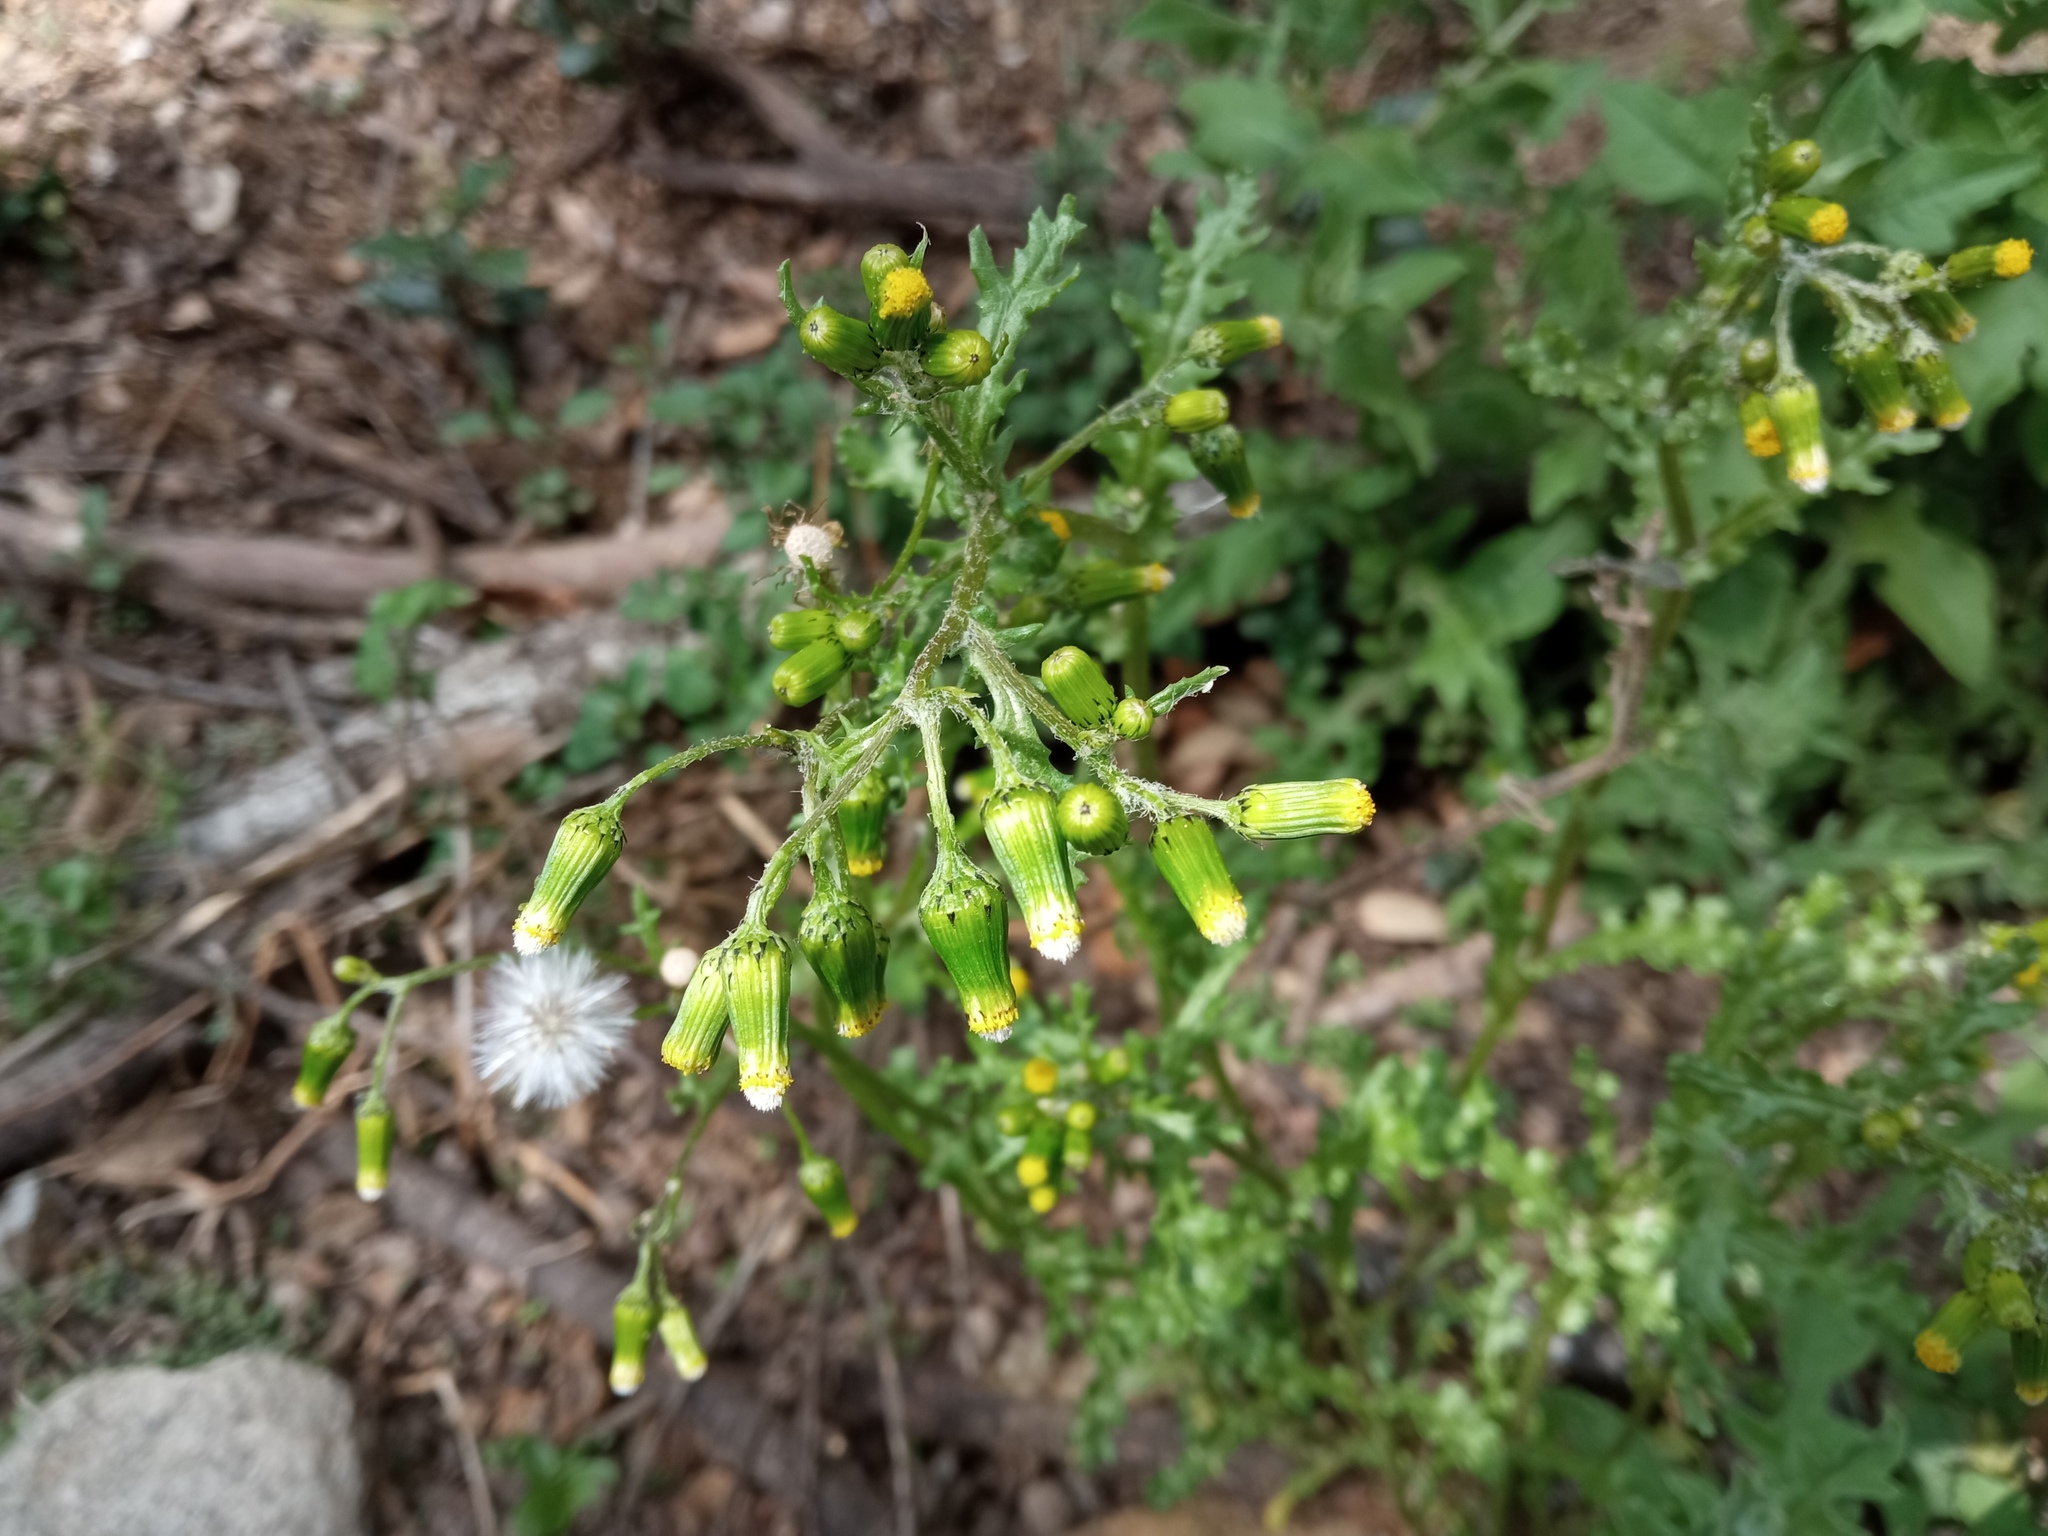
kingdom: Plantae
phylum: Tracheophyta
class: Magnoliopsida
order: Asterales
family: Asteraceae
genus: Senecio
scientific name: Senecio vulgaris
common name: Old-man-in-the-spring
